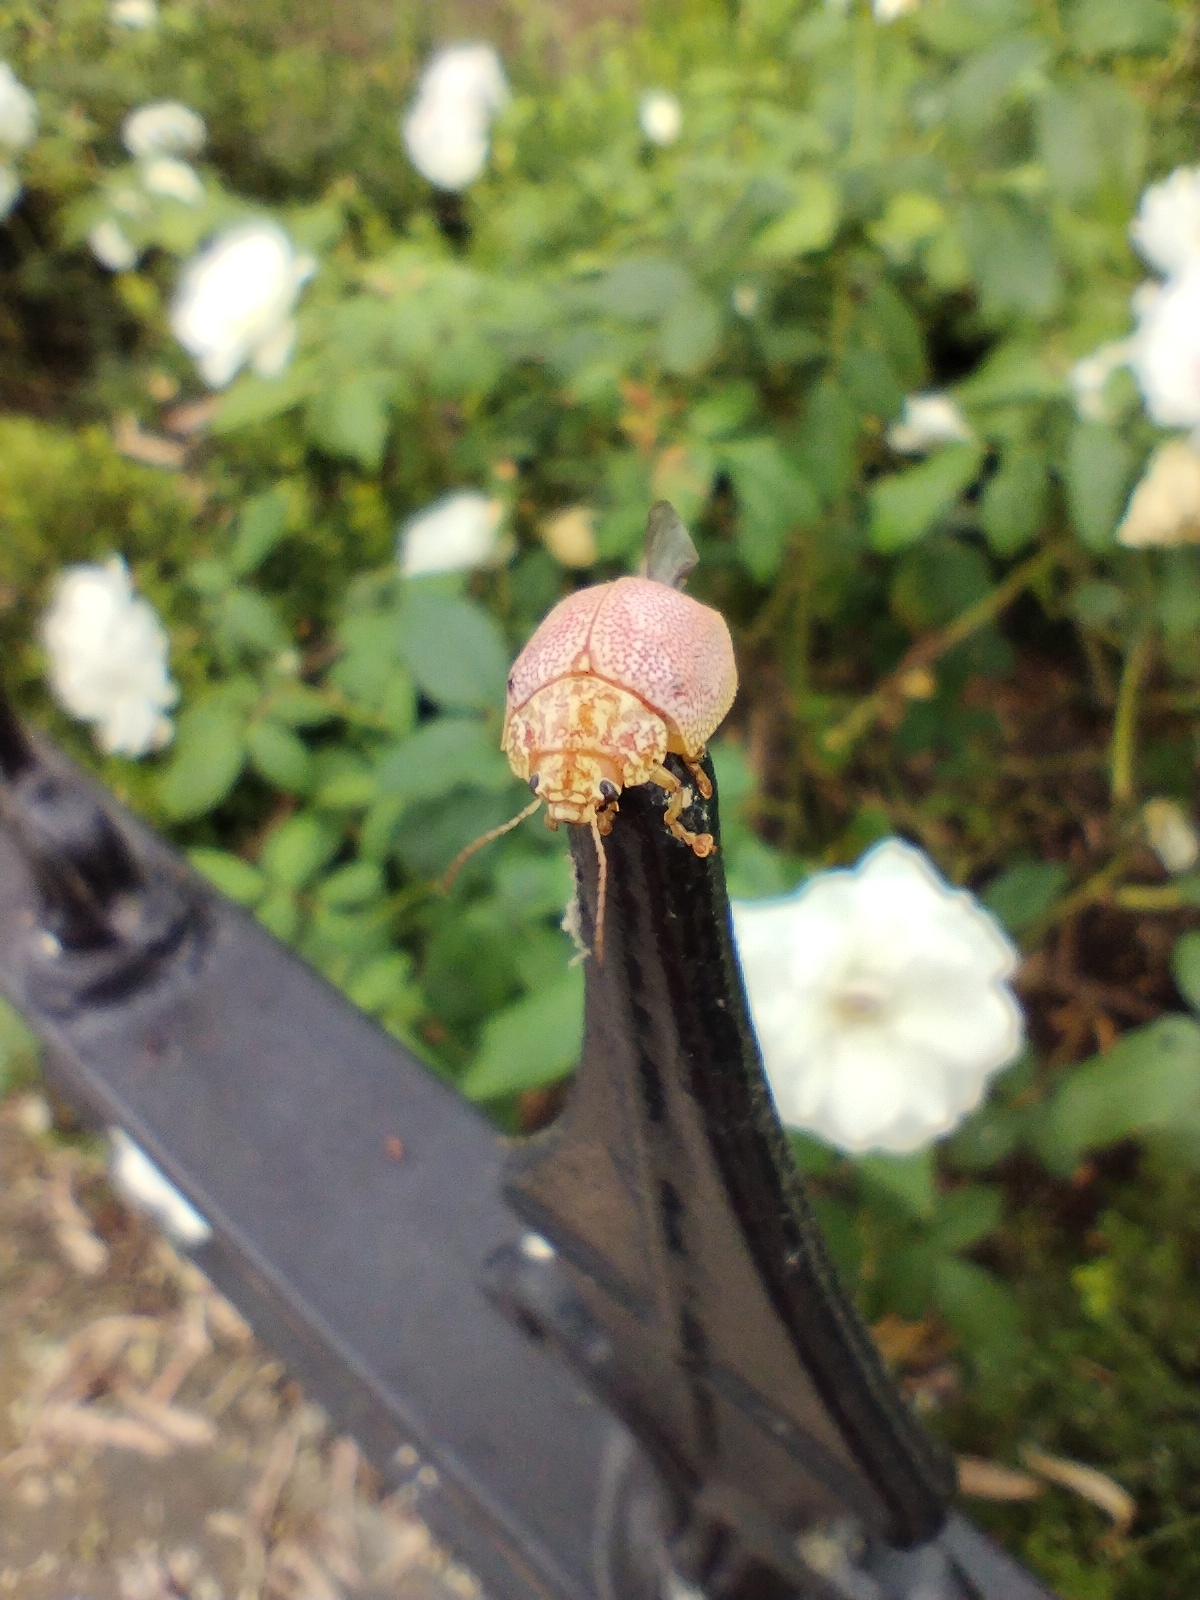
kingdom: Animalia
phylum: Arthropoda
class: Insecta
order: Coleoptera
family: Chrysomelidae
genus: Paropsis
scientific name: Paropsis
